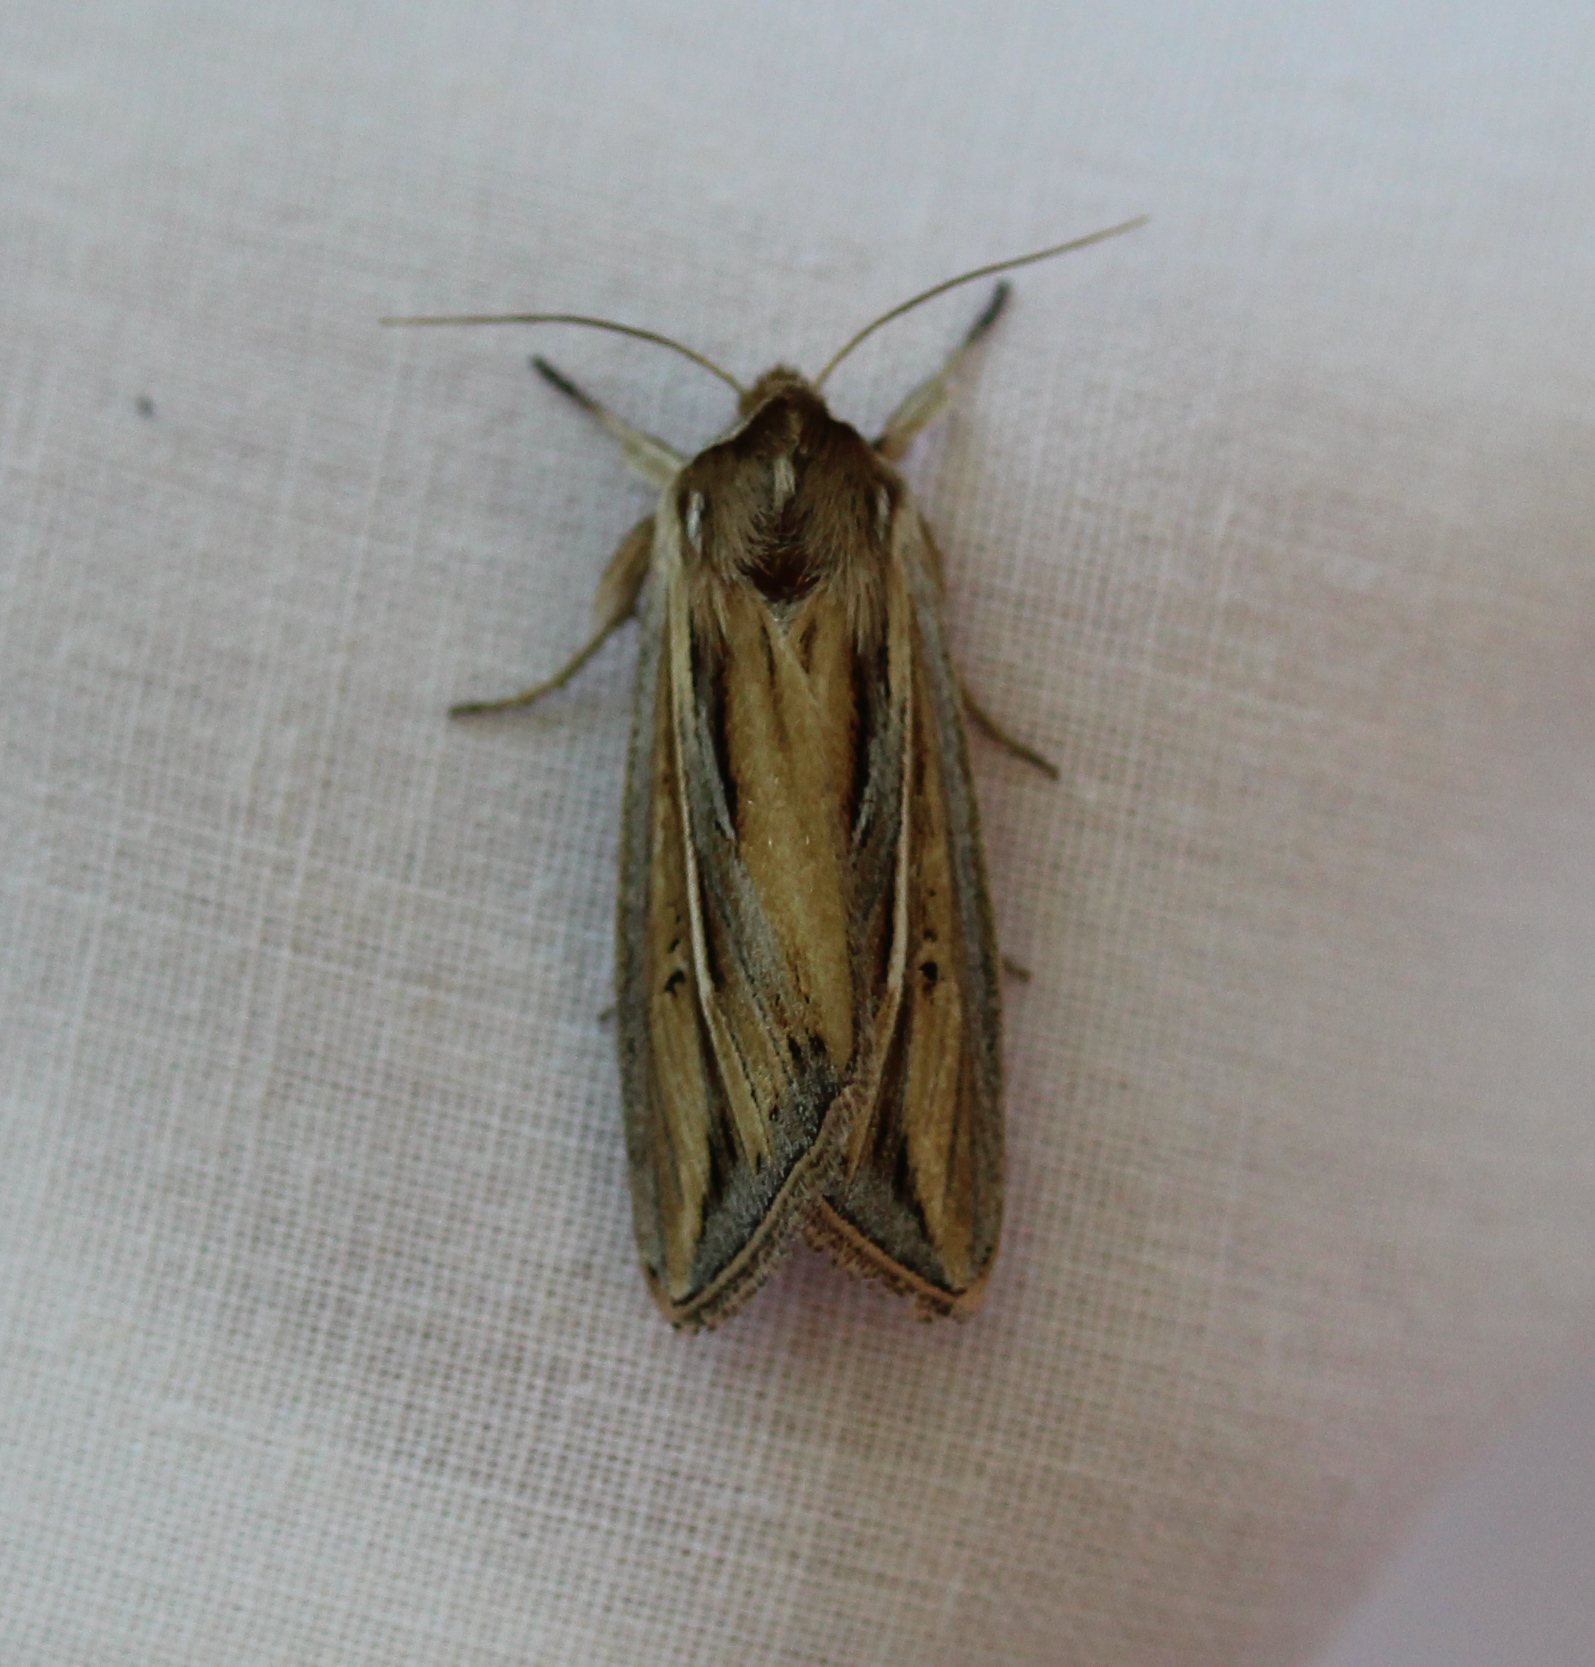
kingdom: Animalia
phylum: Arthropoda
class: Insecta
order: Lepidoptera
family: Noctuidae
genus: Dargida
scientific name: Dargida diffusa
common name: Wheat head armyworm
